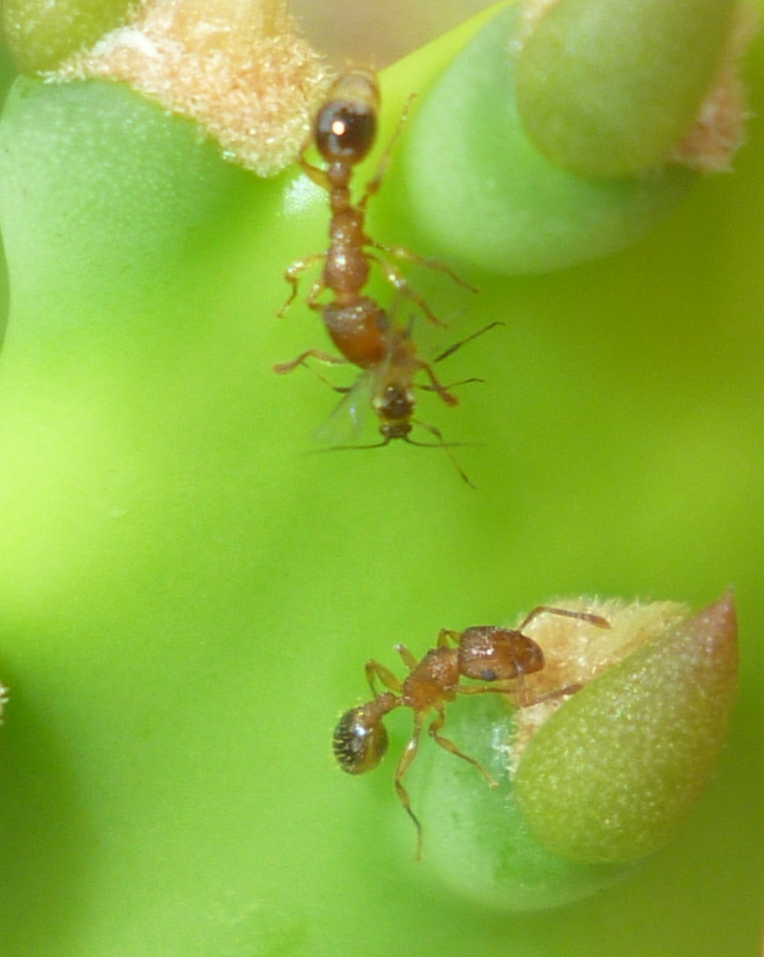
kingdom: Animalia
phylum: Arthropoda
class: Insecta
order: Hymenoptera
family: Formicidae
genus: Tetramorium
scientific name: Tetramorium bicarinatum
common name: Guinea ant
